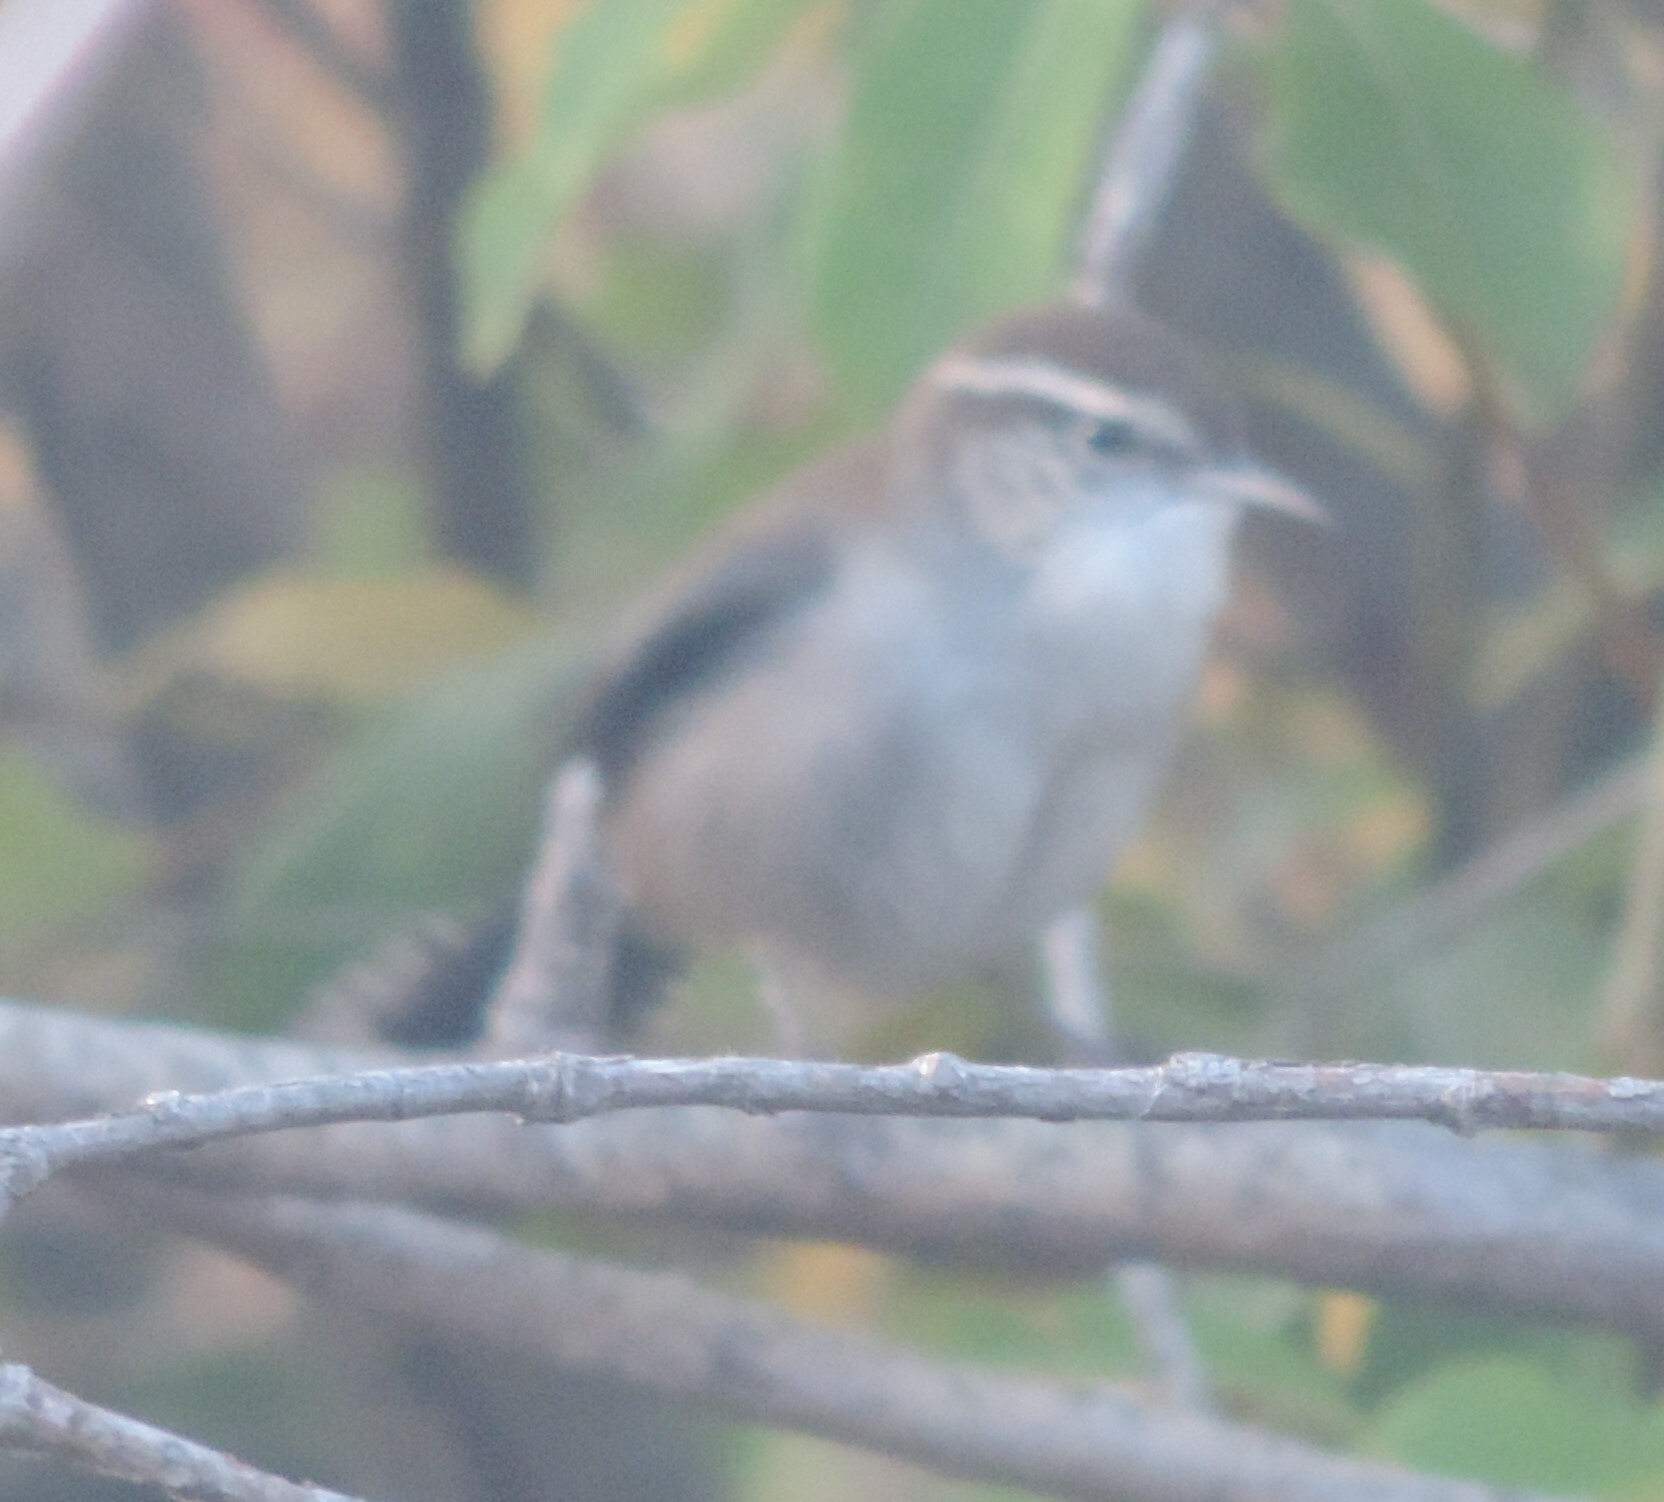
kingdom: Animalia
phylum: Chordata
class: Aves
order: Passeriformes
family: Troglodytidae
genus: Thryomanes
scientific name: Thryomanes bewickii
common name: Bewick's wren
